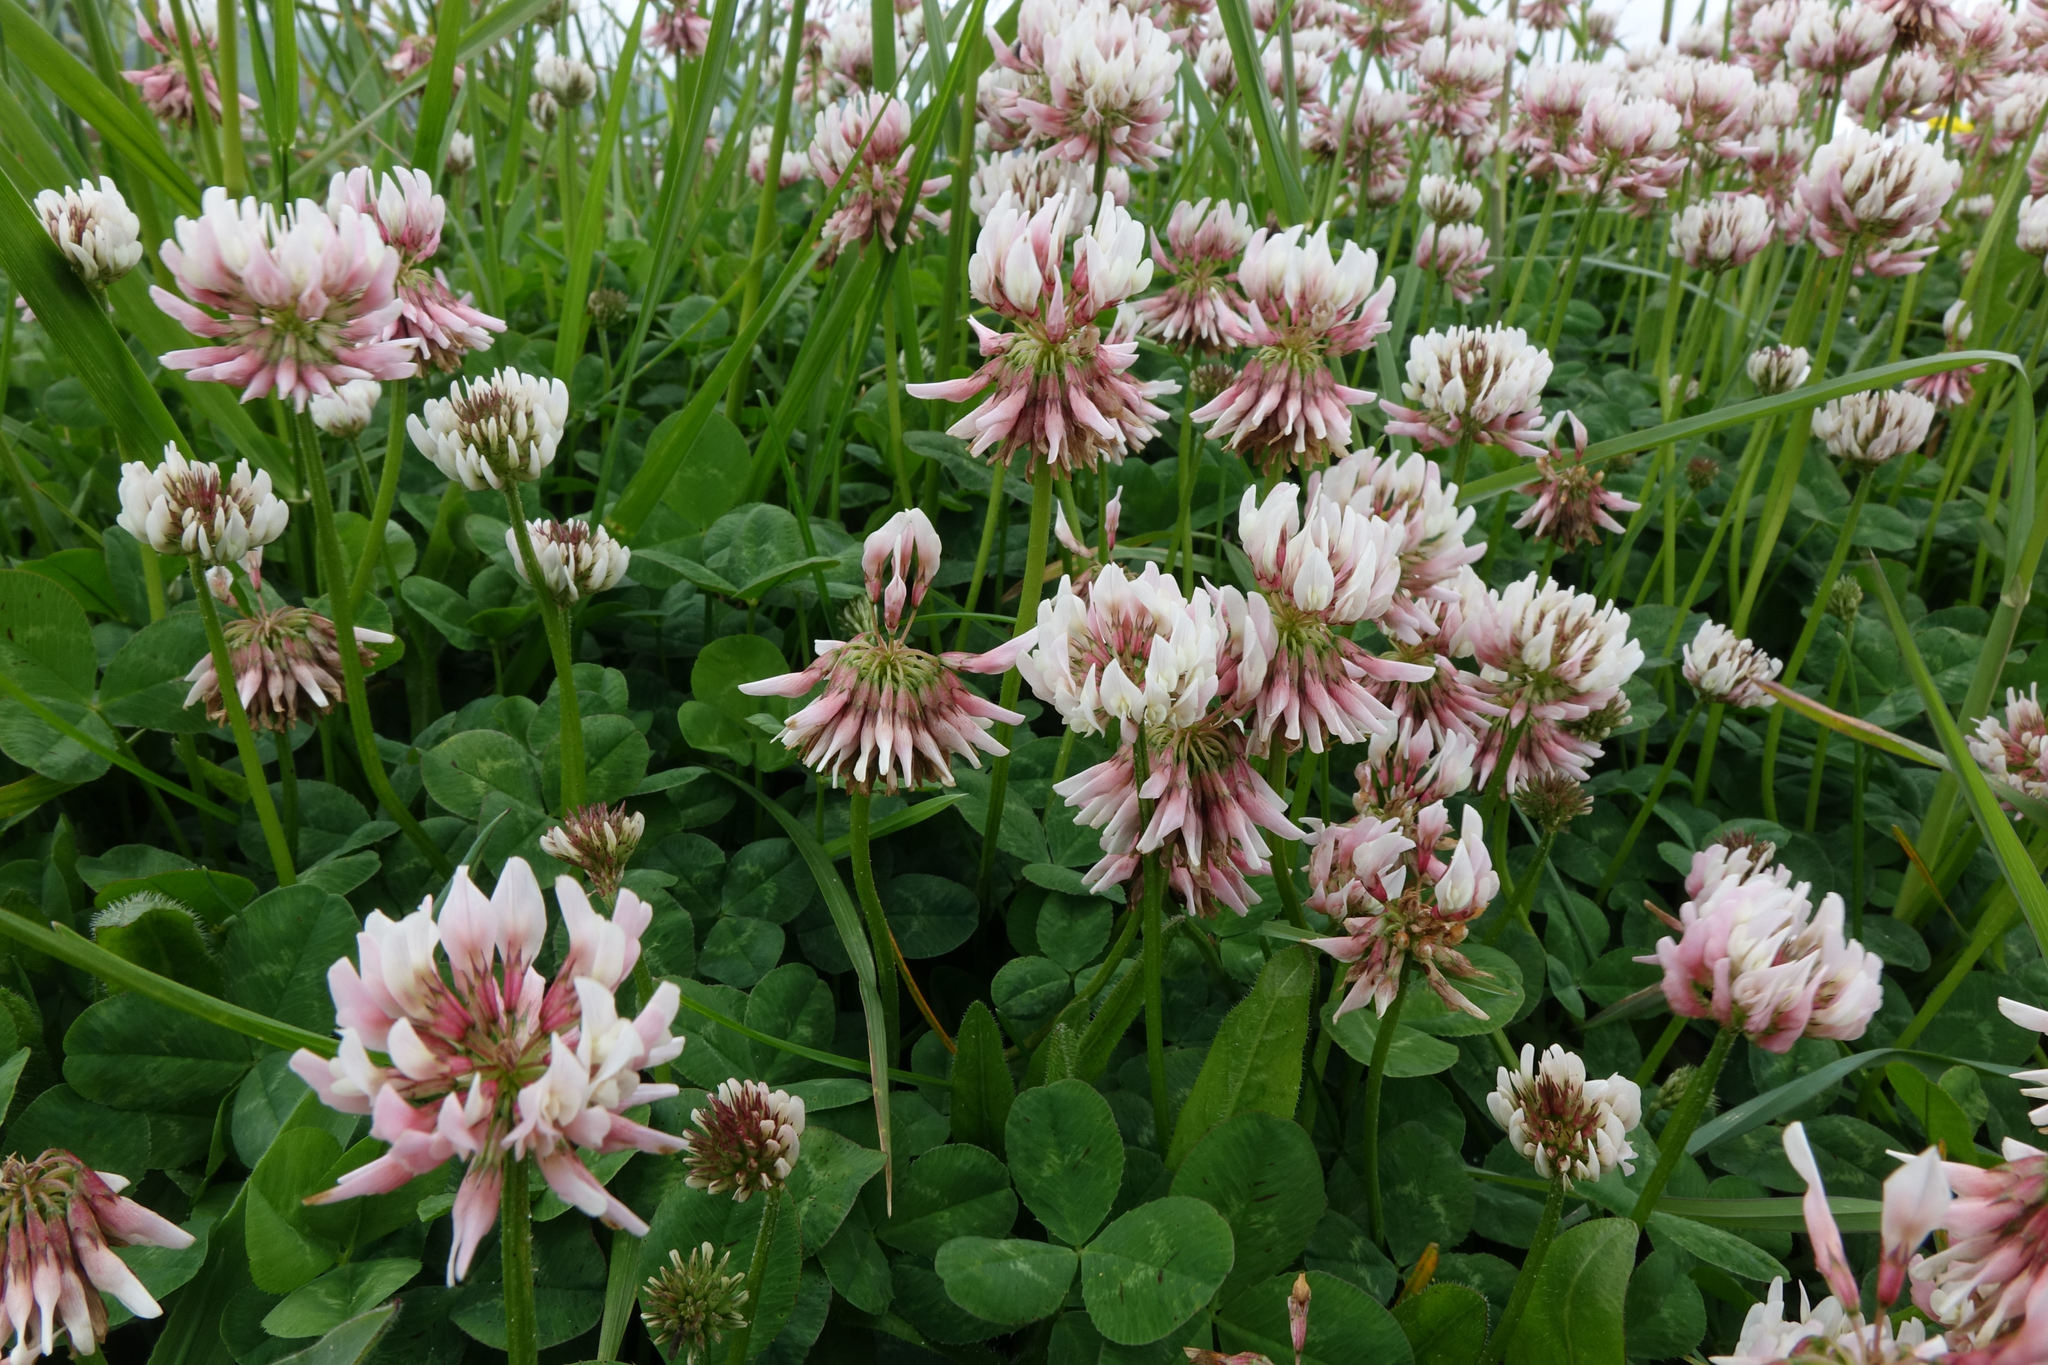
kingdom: Plantae
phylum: Tracheophyta
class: Magnoliopsida
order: Fabales
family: Fabaceae
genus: Trifolium
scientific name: Trifolium repens
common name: White clover
